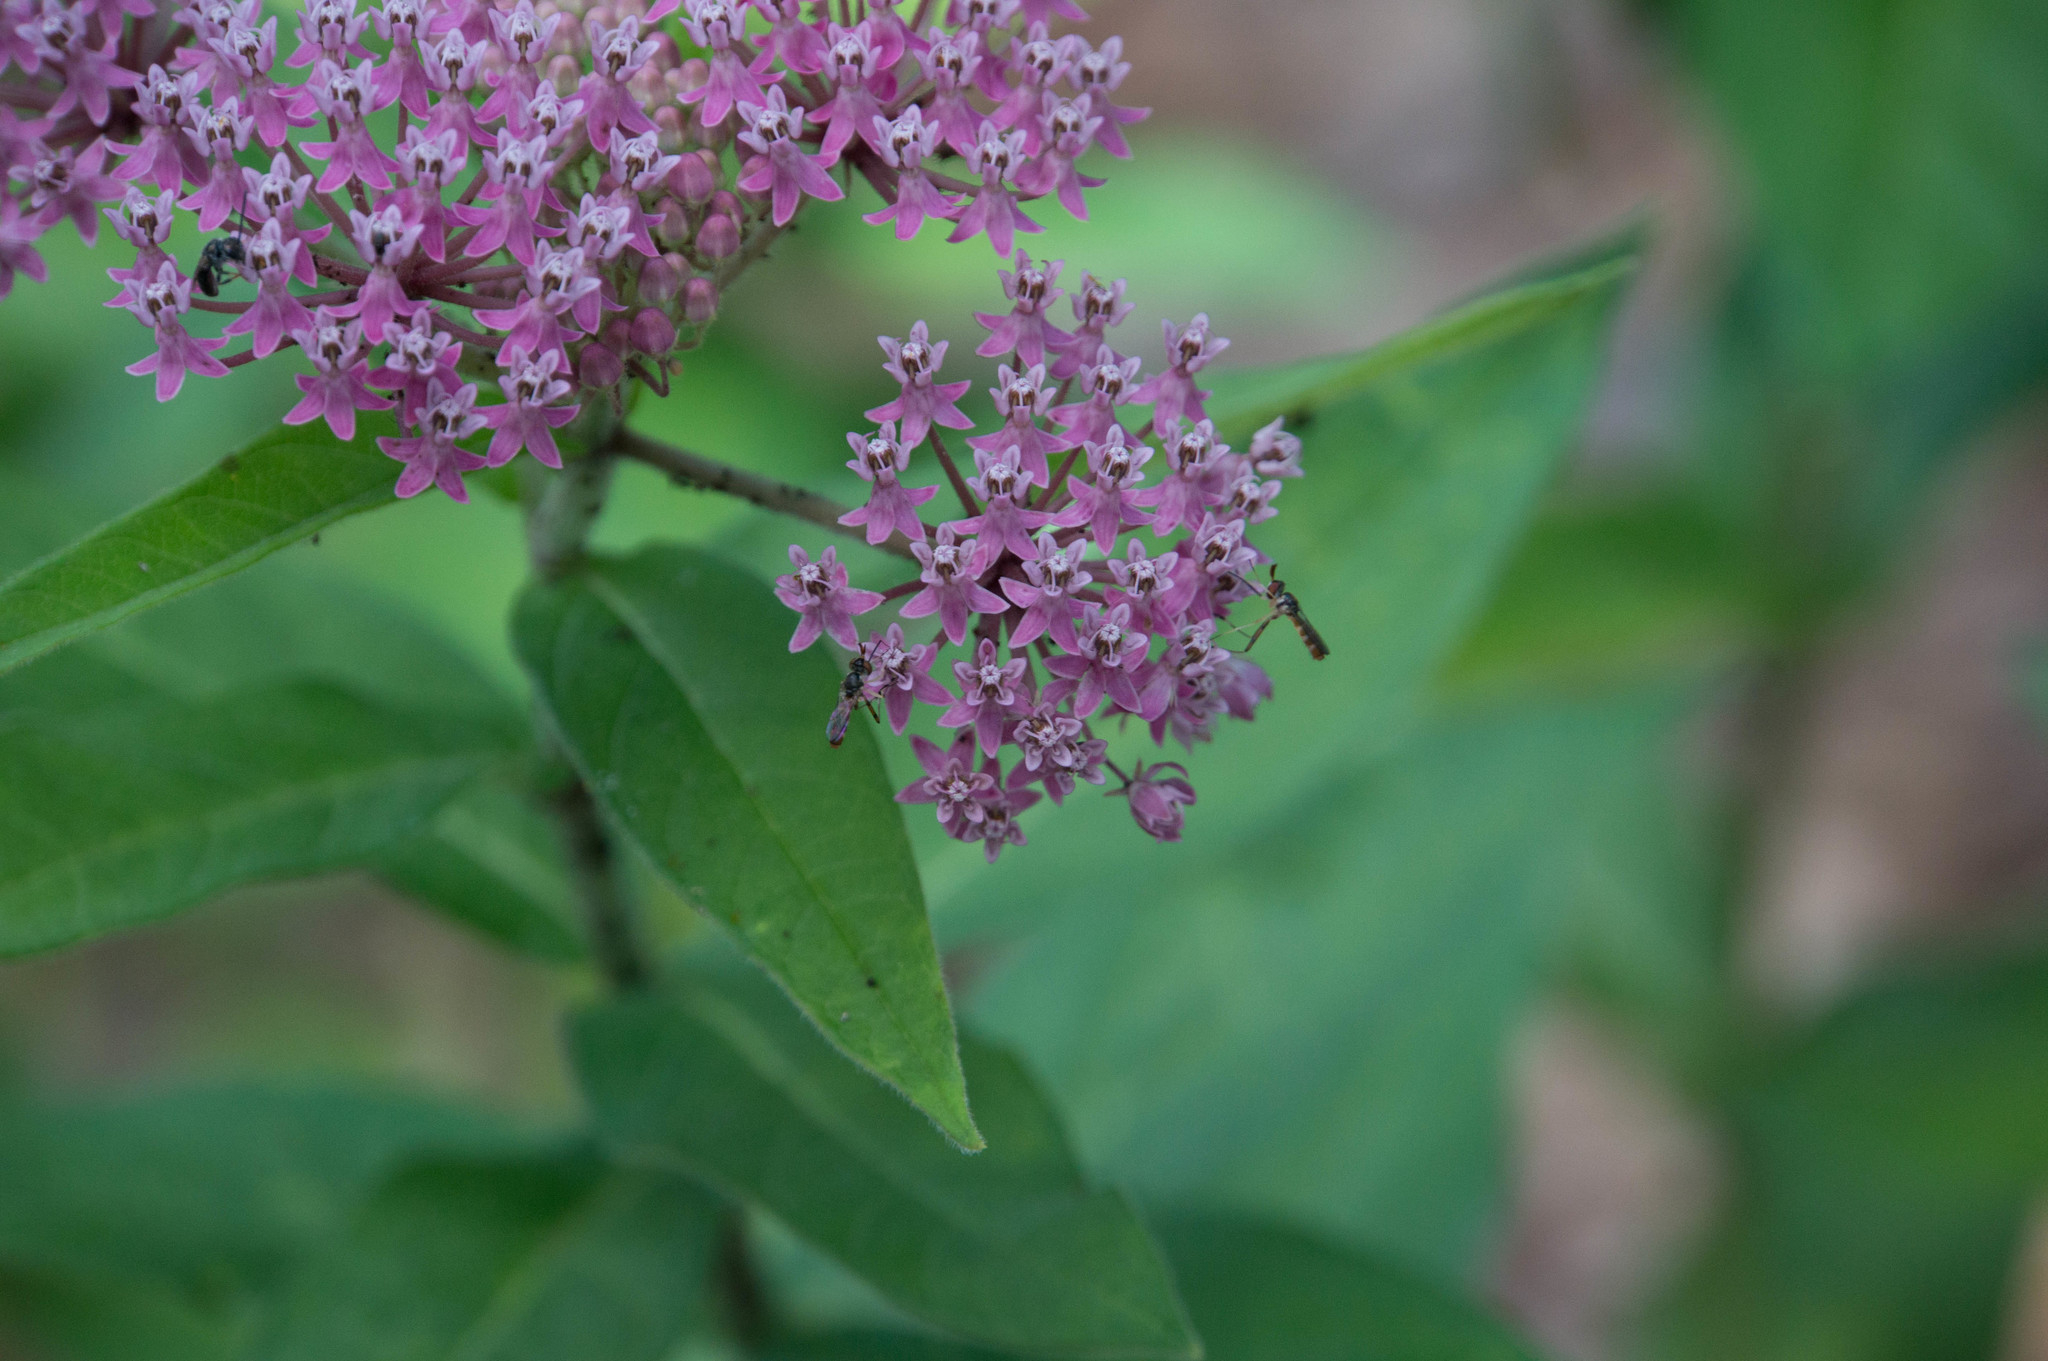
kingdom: Animalia
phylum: Arthropoda
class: Insecta
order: Diptera
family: Conopidae
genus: Stylogaster
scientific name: Stylogaster neglecta
